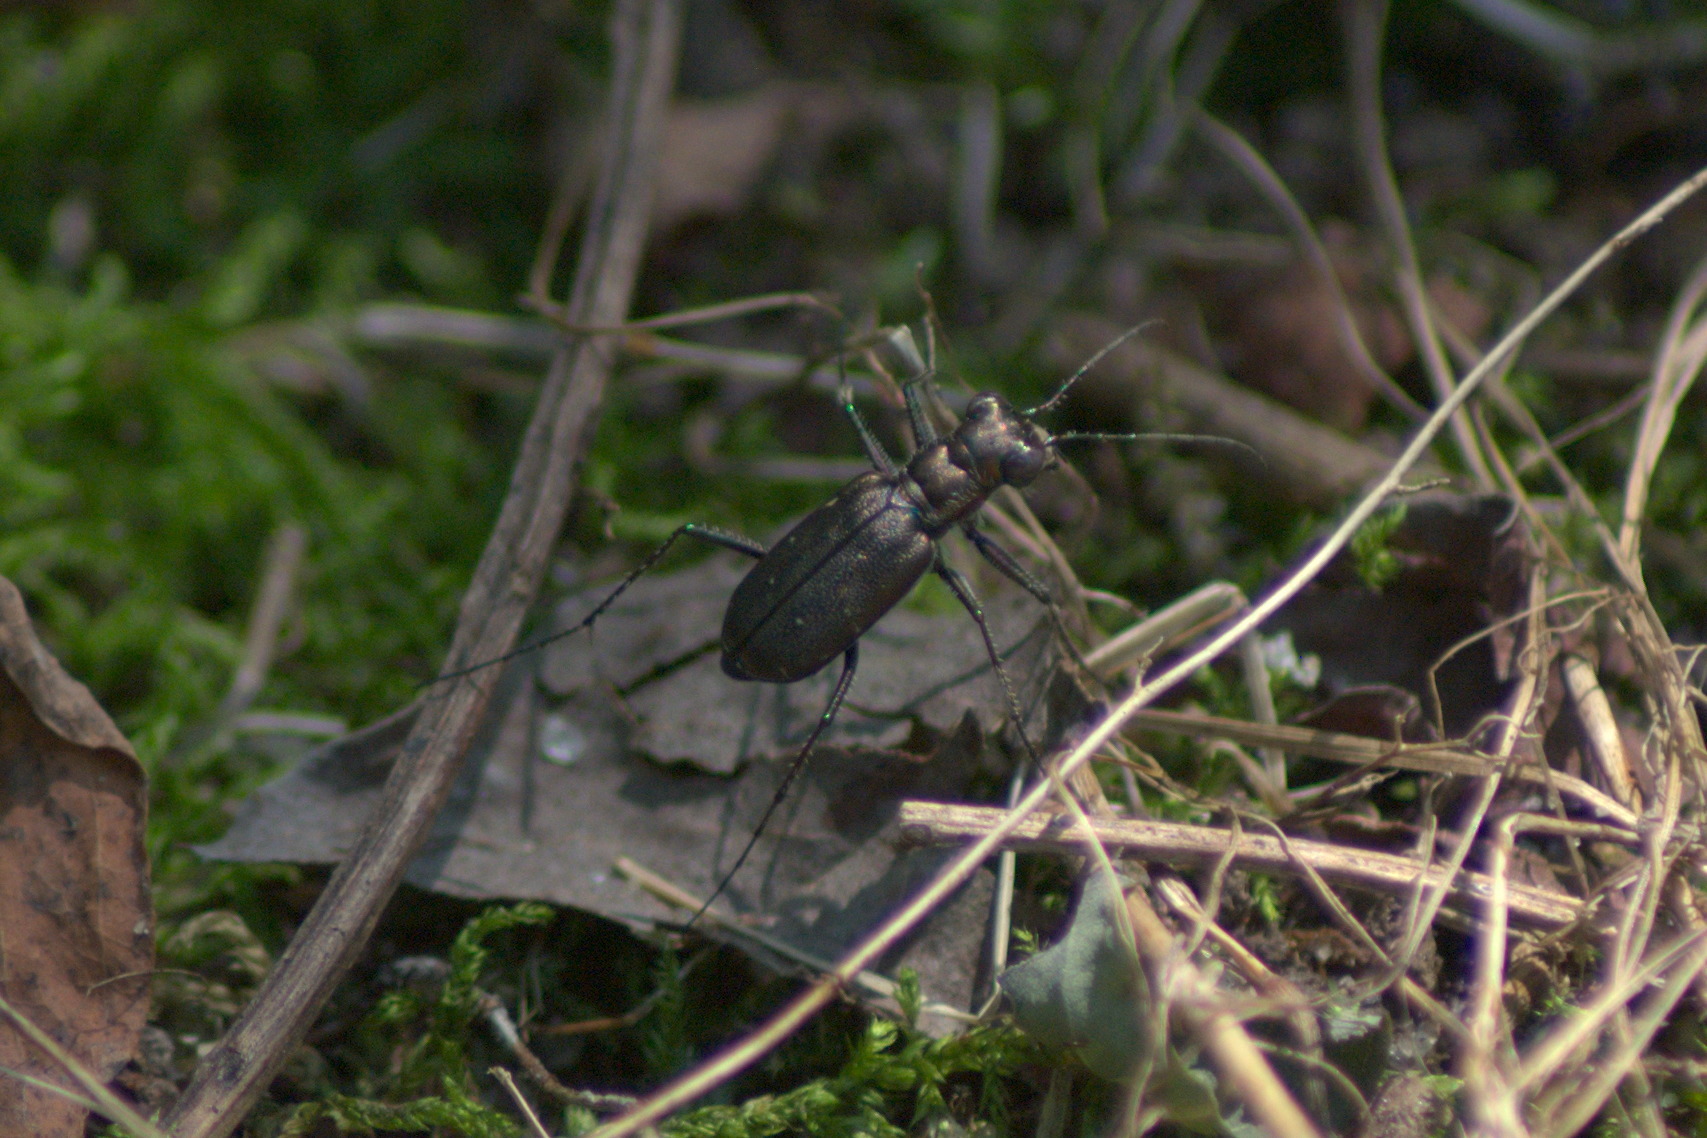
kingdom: Animalia
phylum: Arthropoda
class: Insecta
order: Coleoptera
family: Carabidae
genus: Cicindela
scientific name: Cicindela punctulata
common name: Punctured tiger beetle
